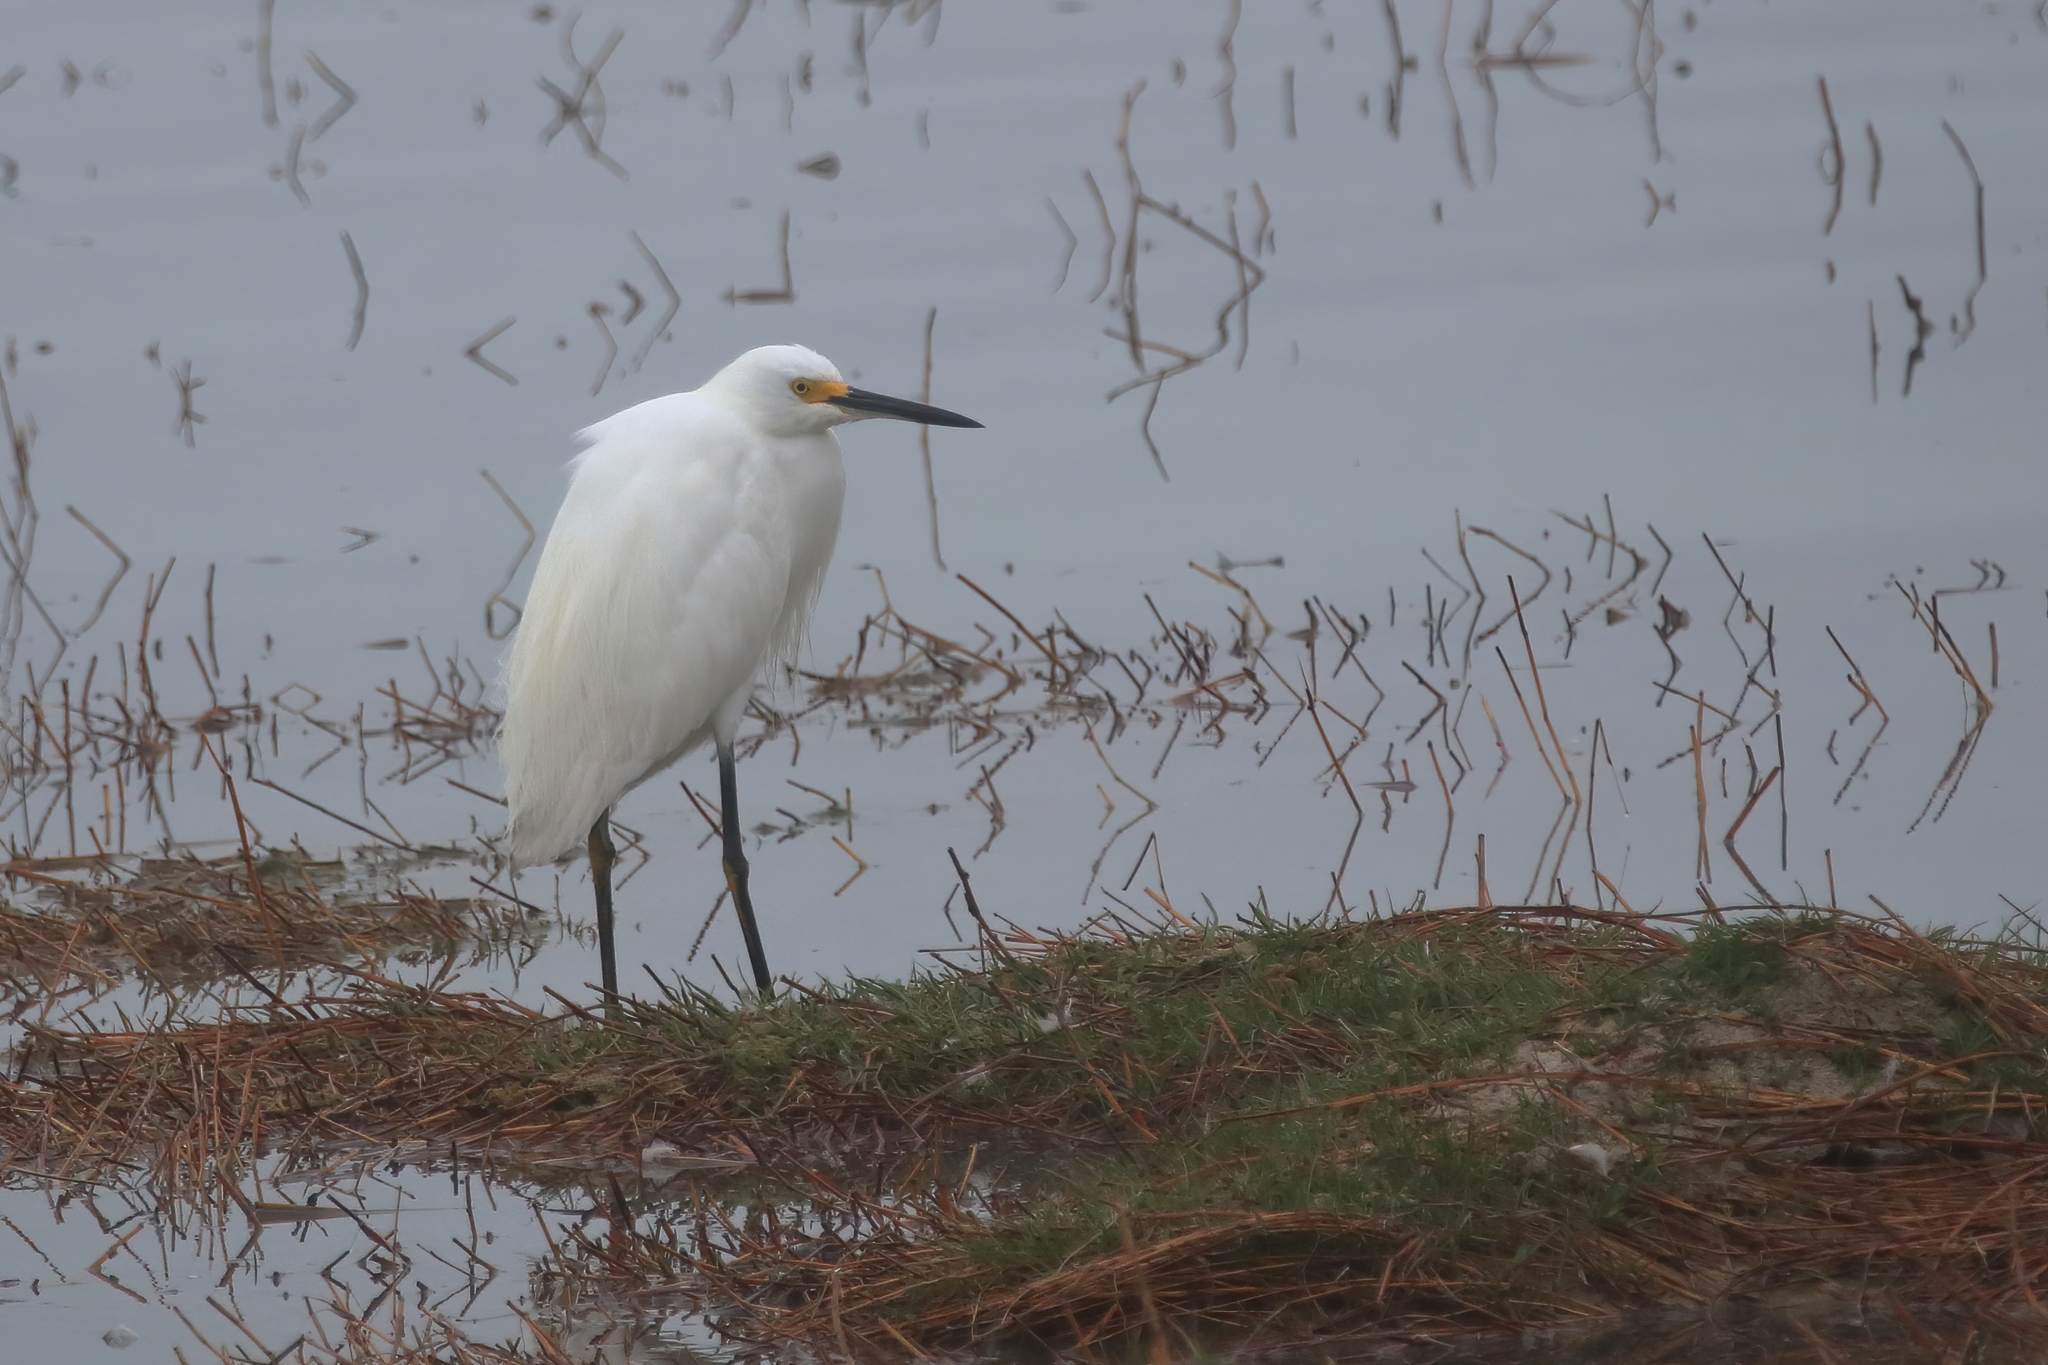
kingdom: Animalia
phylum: Chordata
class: Aves
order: Pelecaniformes
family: Ardeidae
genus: Egretta
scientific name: Egretta thula
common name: Snowy egret
